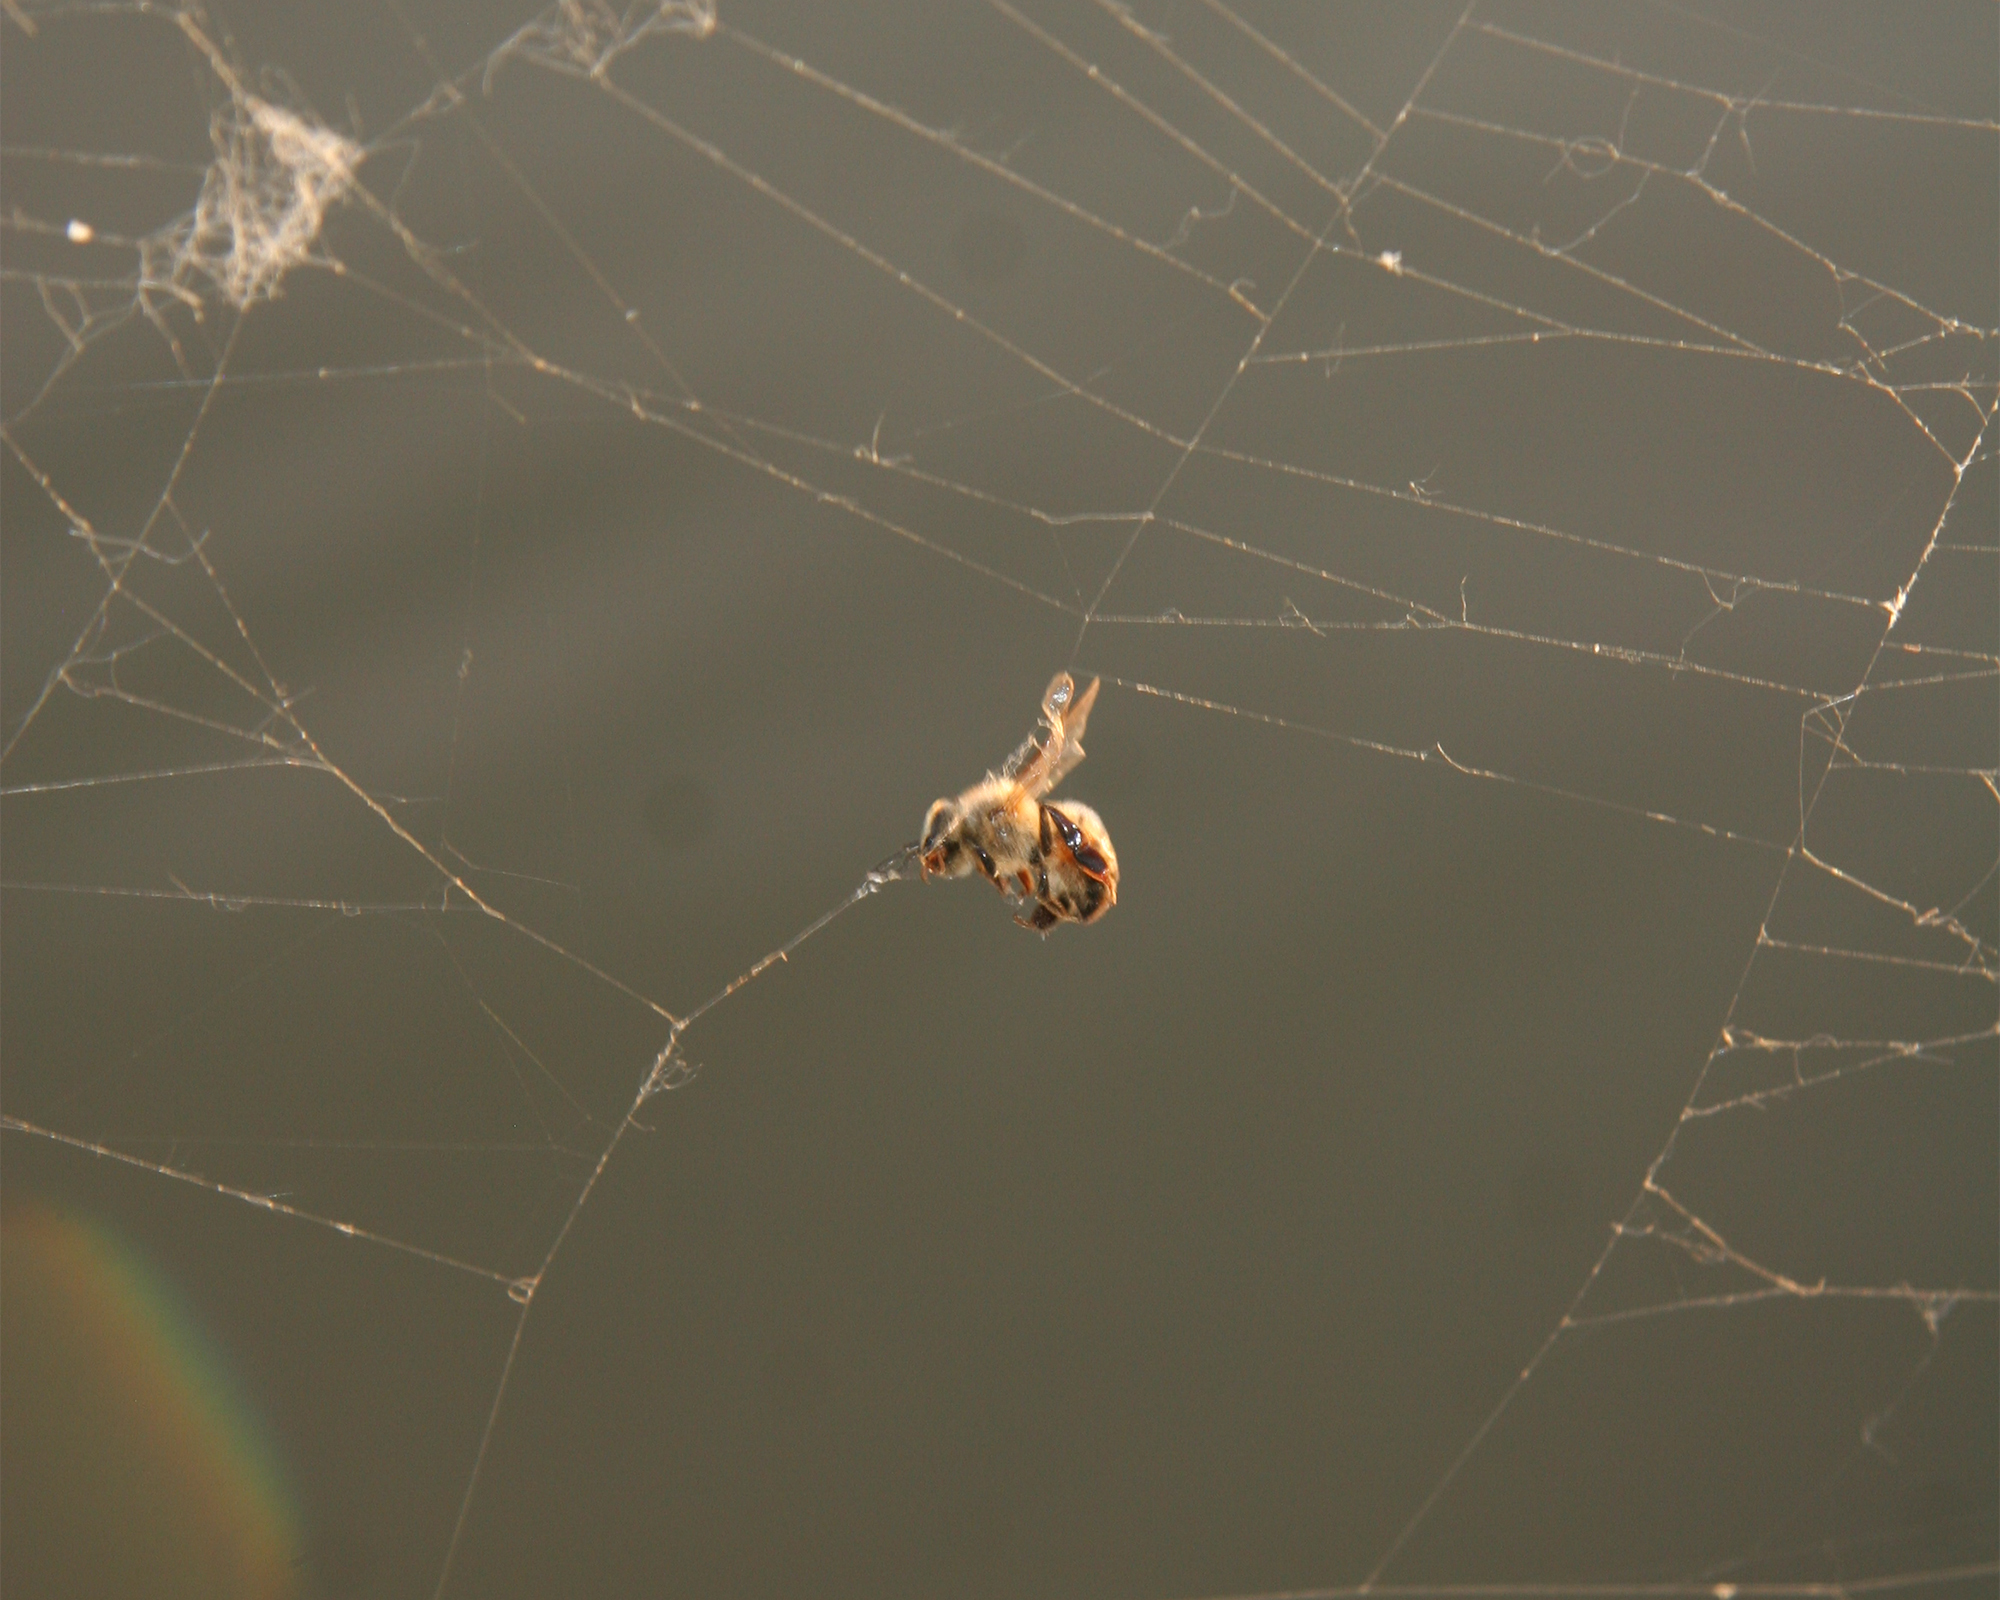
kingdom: Animalia
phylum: Arthropoda
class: Insecta
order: Hymenoptera
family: Apidae
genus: Apis
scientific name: Apis mellifera
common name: Honey bee
